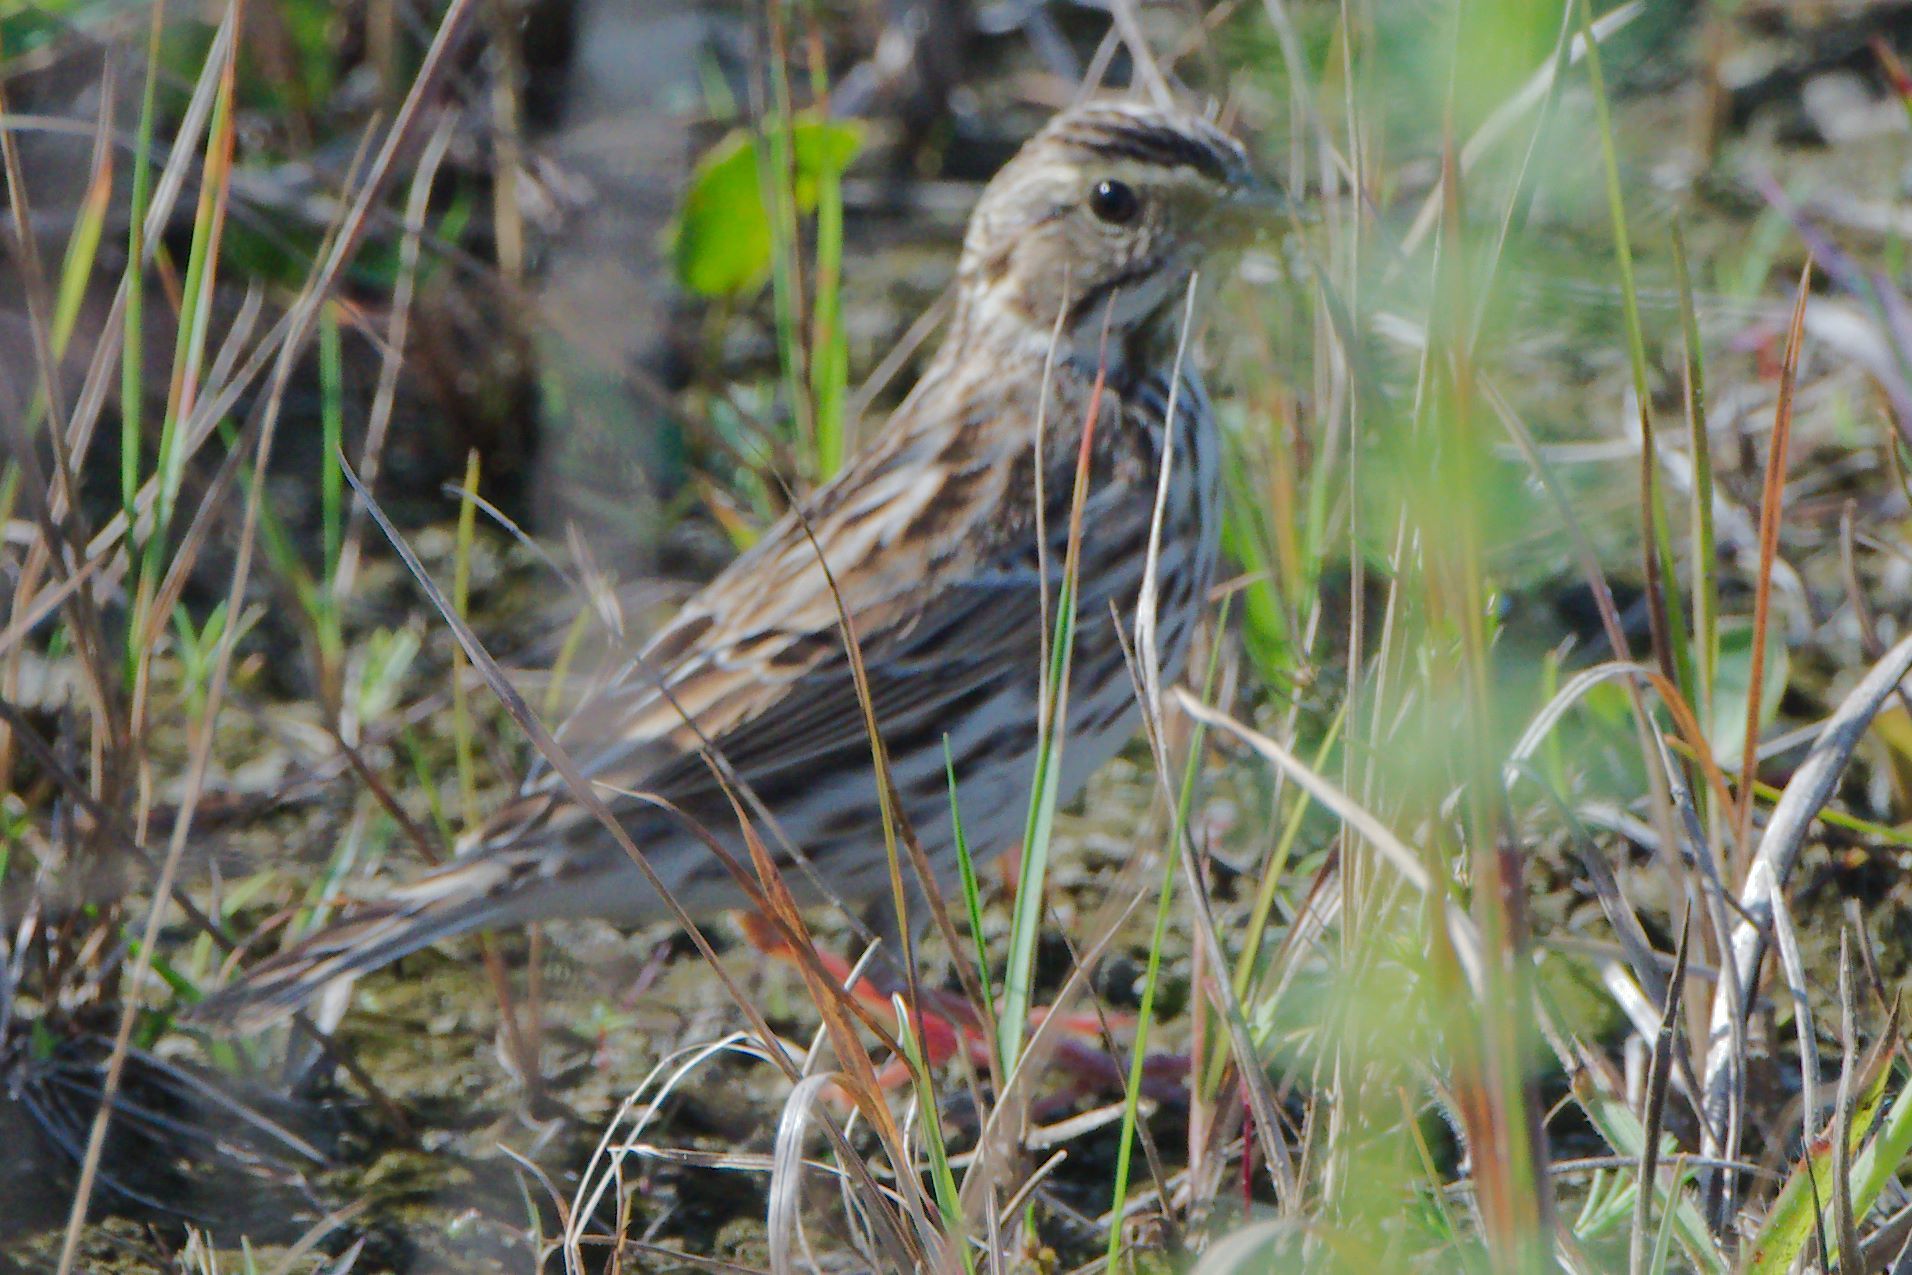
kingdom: Animalia
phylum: Chordata
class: Aves
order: Passeriformes
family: Passerellidae
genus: Passerculus
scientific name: Passerculus sandwichensis
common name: Savannah sparrow
